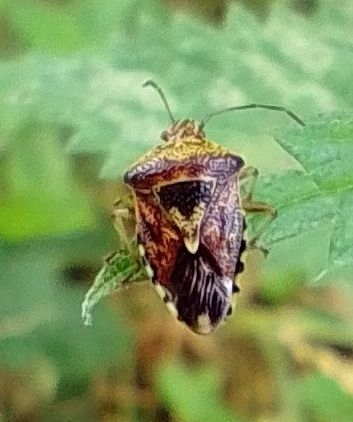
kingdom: Animalia
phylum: Arthropoda
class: Insecta
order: Hemiptera
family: Acanthosomatidae
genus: Elasmucha
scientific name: Elasmucha grisea
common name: Parent bug
